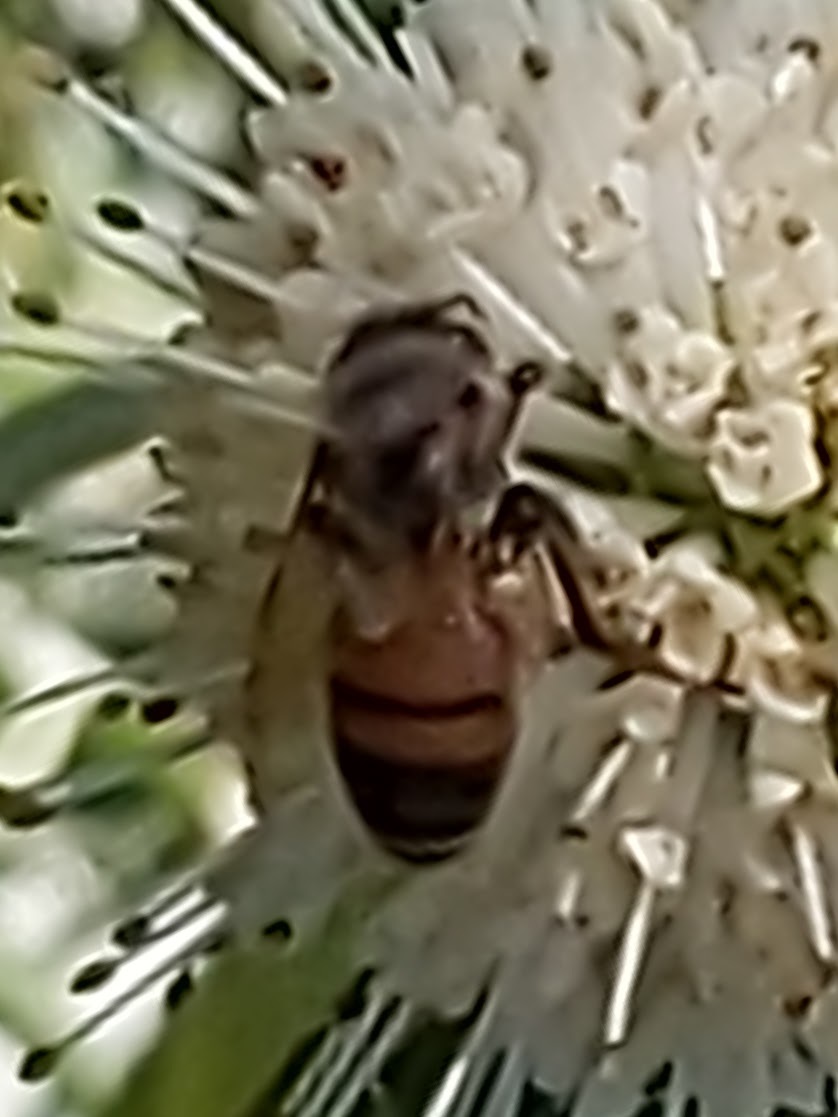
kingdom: Animalia
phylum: Arthropoda
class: Insecta
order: Hymenoptera
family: Apidae
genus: Apis
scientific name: Apis mellifera
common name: Honey bee
